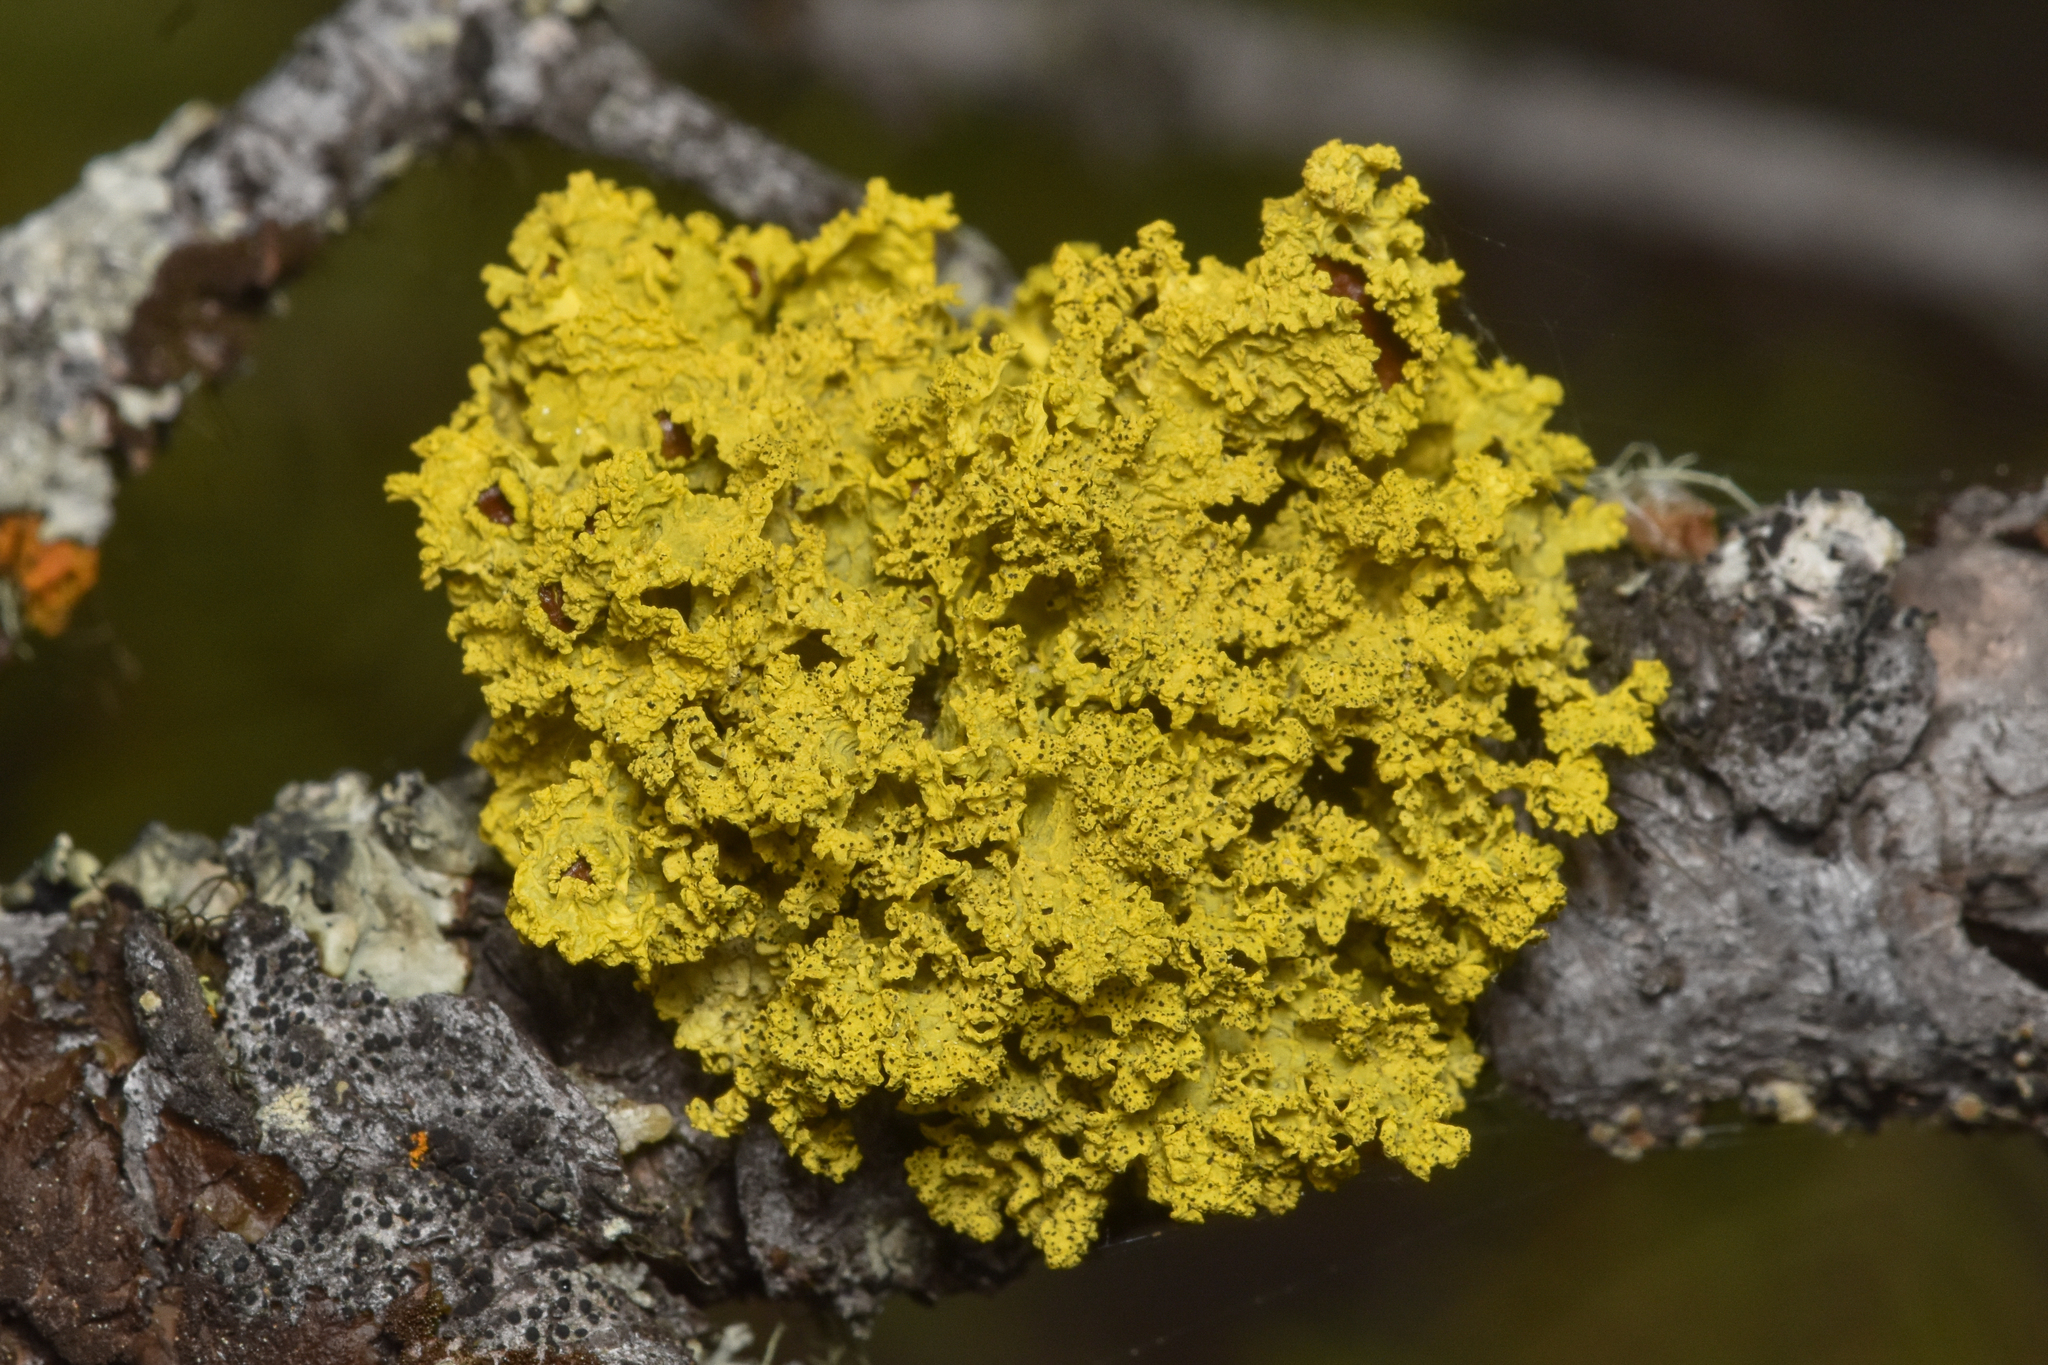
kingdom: Fungi
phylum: Ascomycota
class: Lecanoromycetes
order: Lecanorales
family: Parmeliaceae
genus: Vulpicida
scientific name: Vulpicida canadensis
